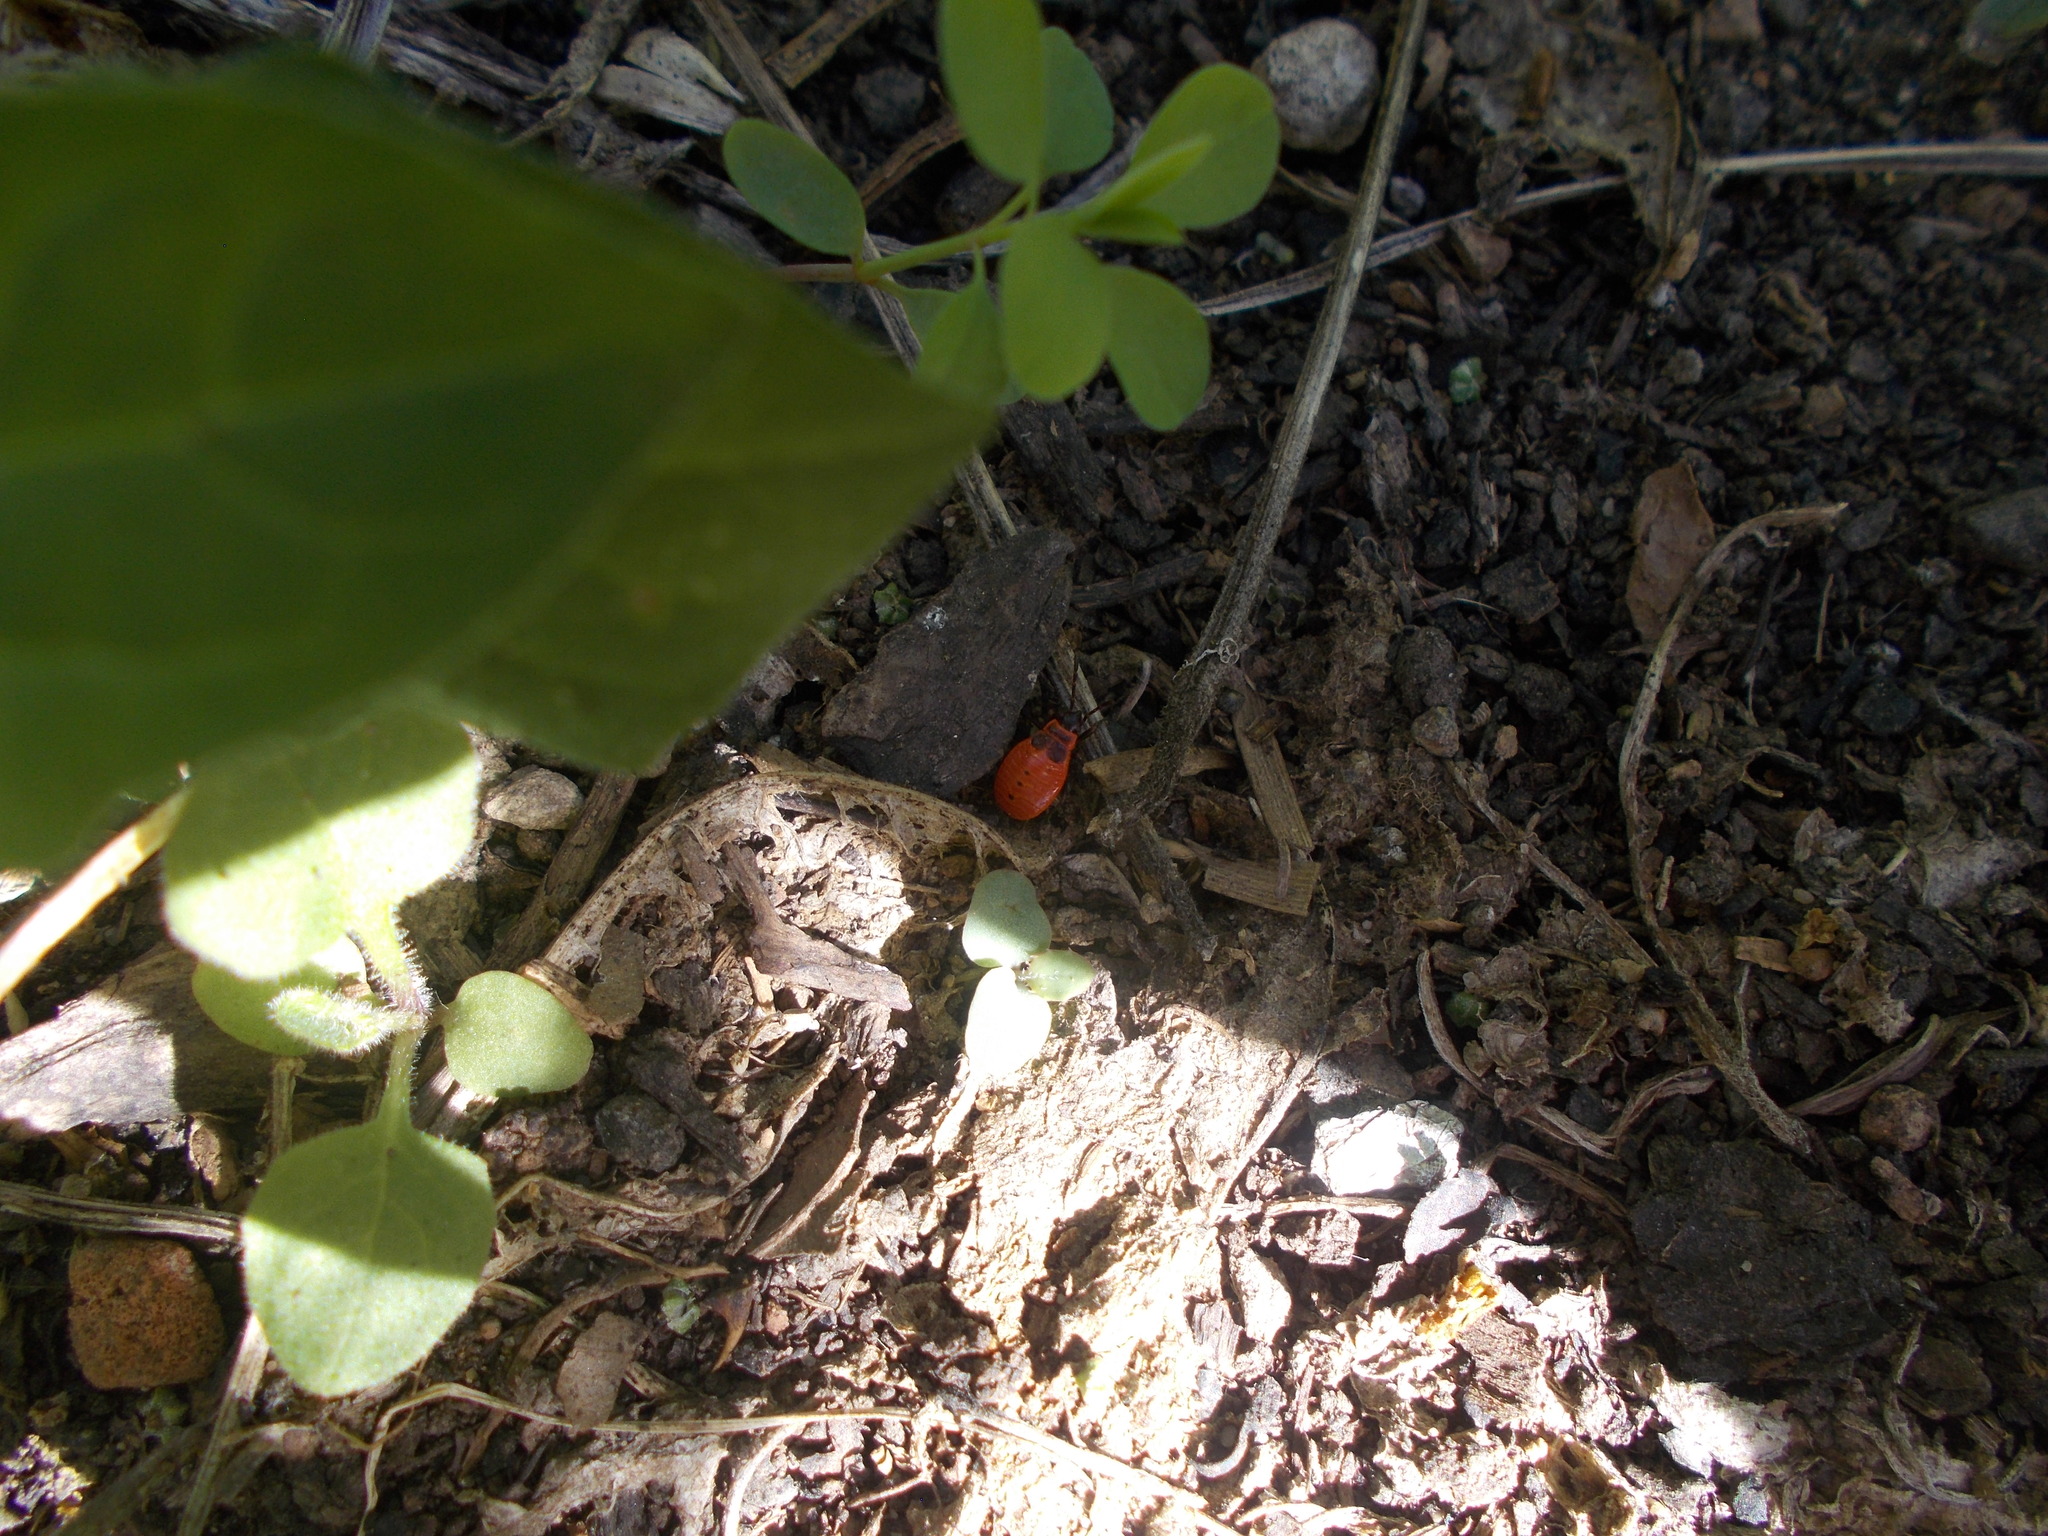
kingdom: Animalia
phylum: Arthropoda
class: Insecta
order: Hemiptera
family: Pyrrhocoridae
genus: Pyrrhocoris
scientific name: Pyrrhocoris apterus
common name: Firebug
